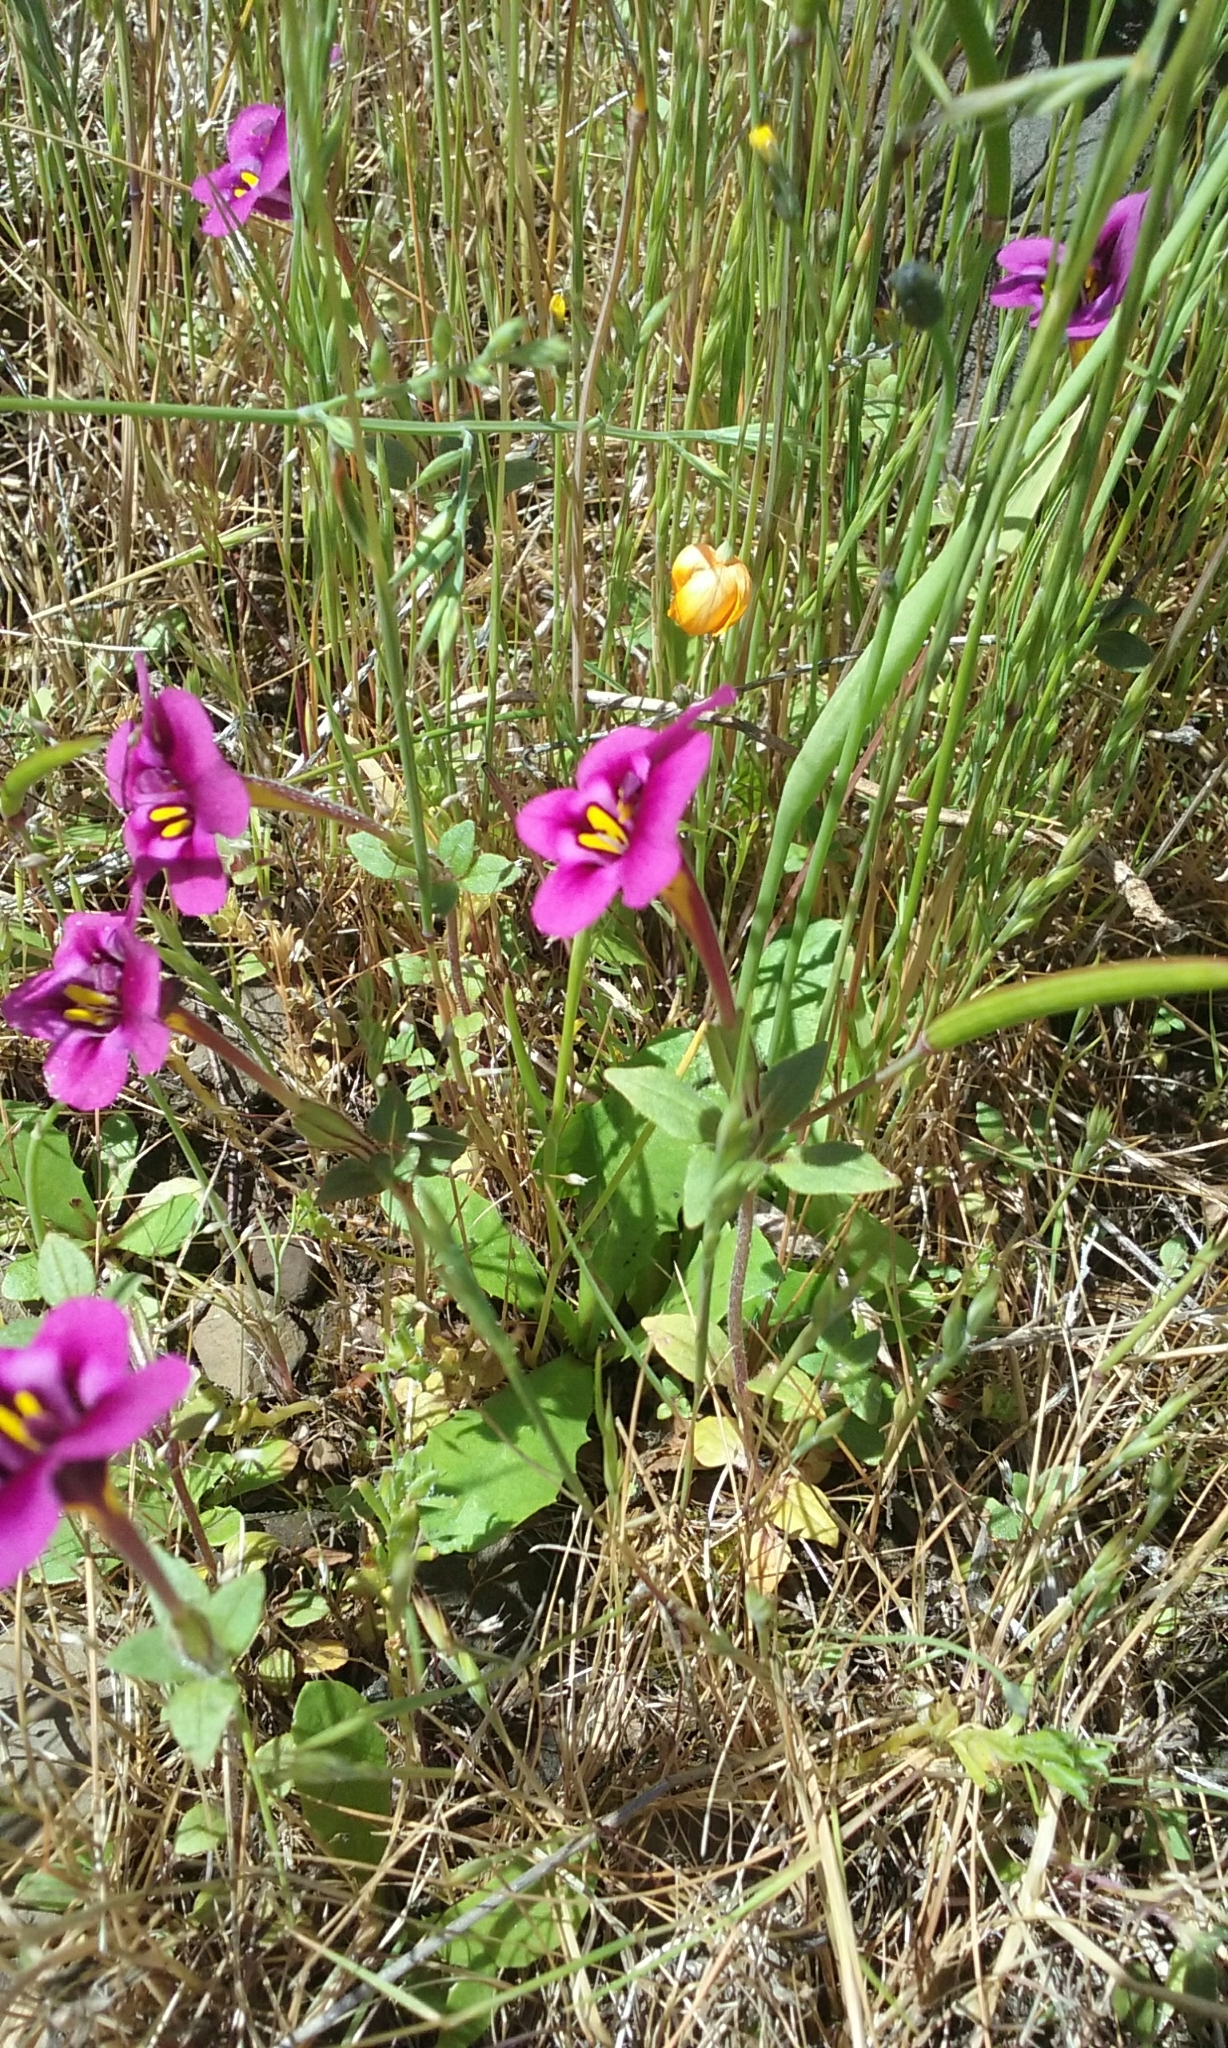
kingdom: Plantae
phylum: Tracheophyta
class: Magnoliopsida
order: Lamiales
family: Phrymaceae
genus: Diplacus
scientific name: Diplacus kelloggii
